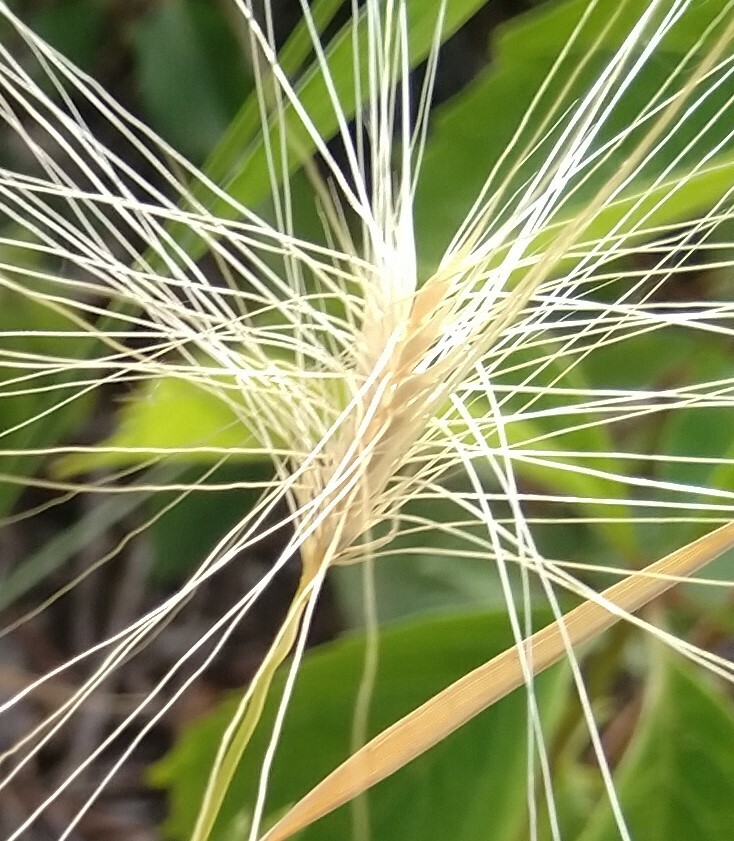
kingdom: Plantae
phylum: Tracheophyta
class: Liliopsida
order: Poales
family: Poaceae
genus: Hordeum
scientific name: Hordeum jubatum
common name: Foxtail barley
